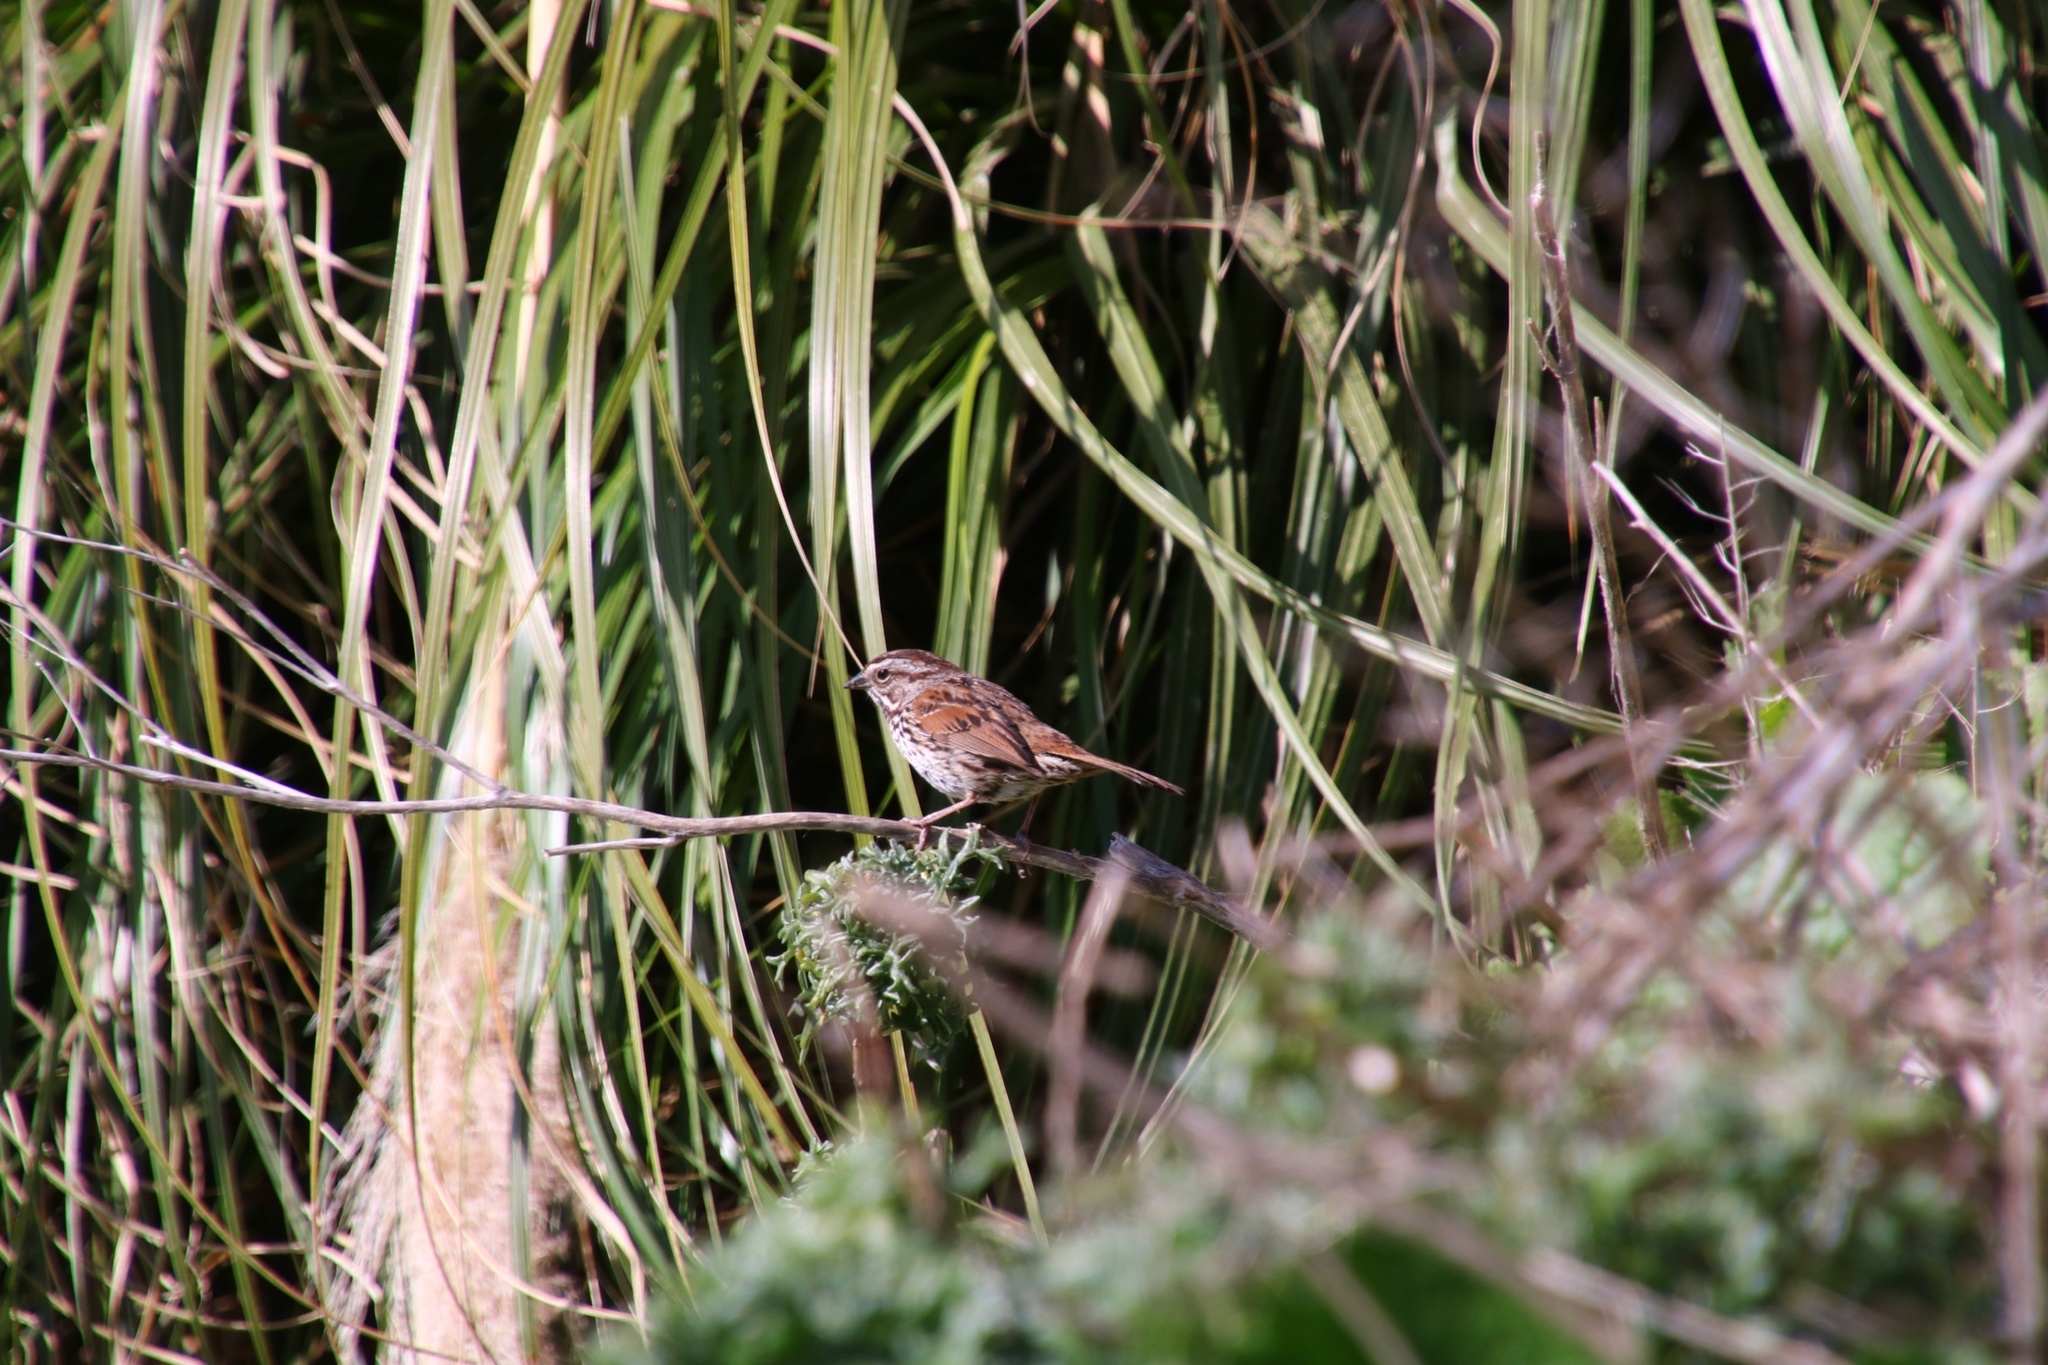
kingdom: Animalia
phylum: Chordata
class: Aves
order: Passeriformes
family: Passerellidae
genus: Melospiza
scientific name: Melospiza melodia
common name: Song sparrow
